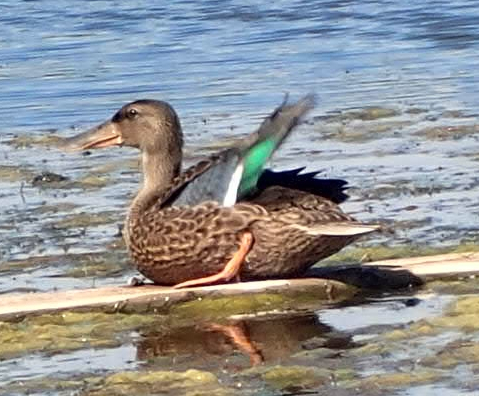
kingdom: Animalia
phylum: Chordata
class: Aves
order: Anseriformes
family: Anatidae
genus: Spatula
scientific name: Spatula clypeata
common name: Northern shoveler
